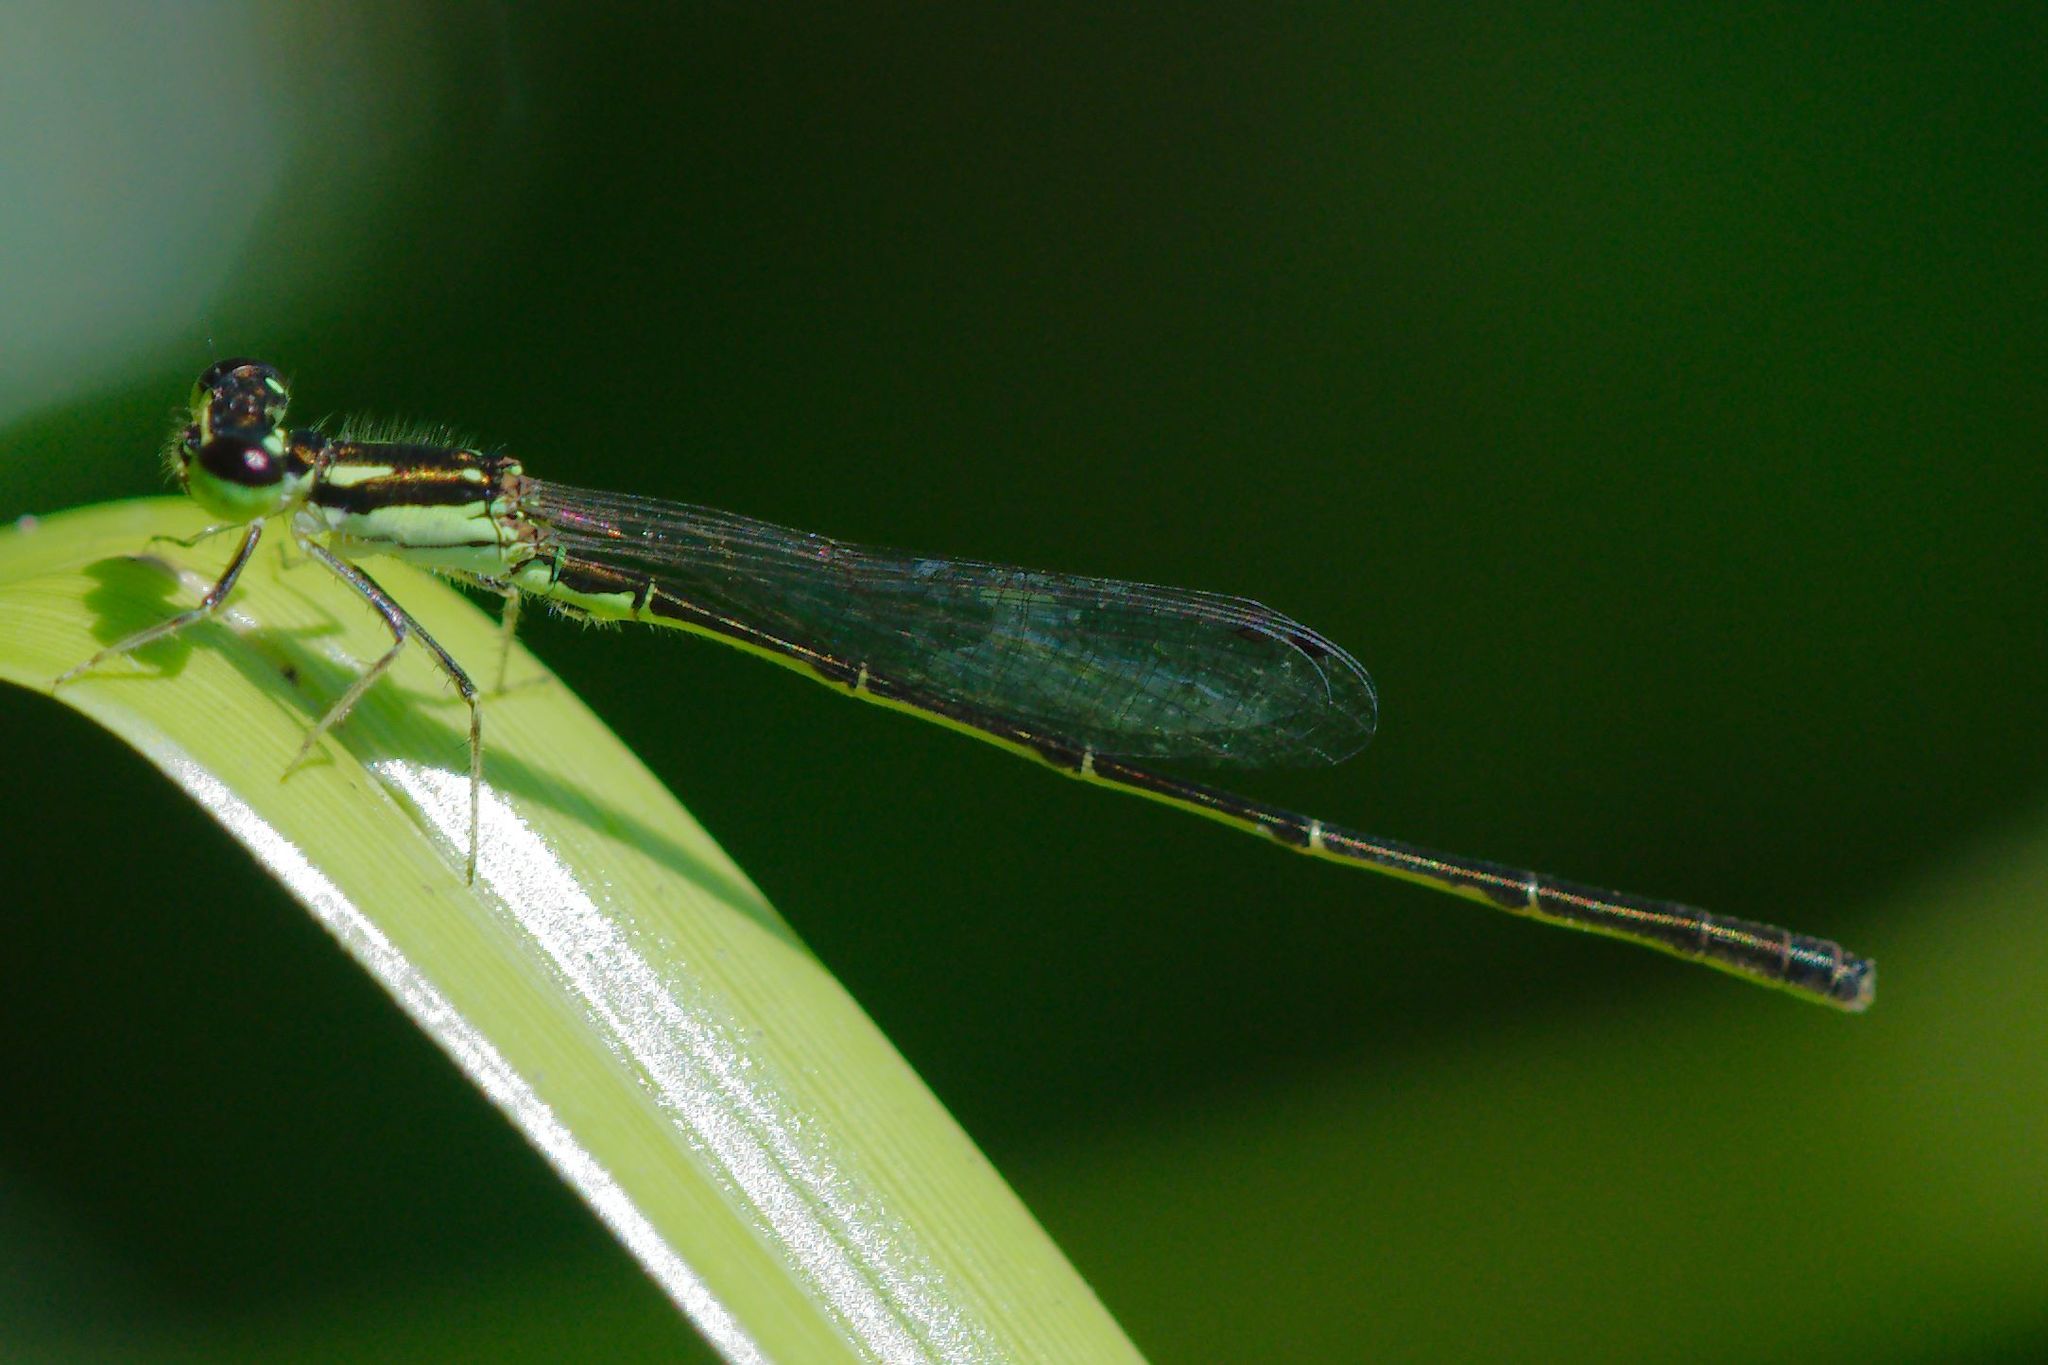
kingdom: Animalia
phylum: Arthropoda
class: Insecta
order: Odonata
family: Coenagrionidae
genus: Ischnura
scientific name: Ischnura posita
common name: Fragile forktail
